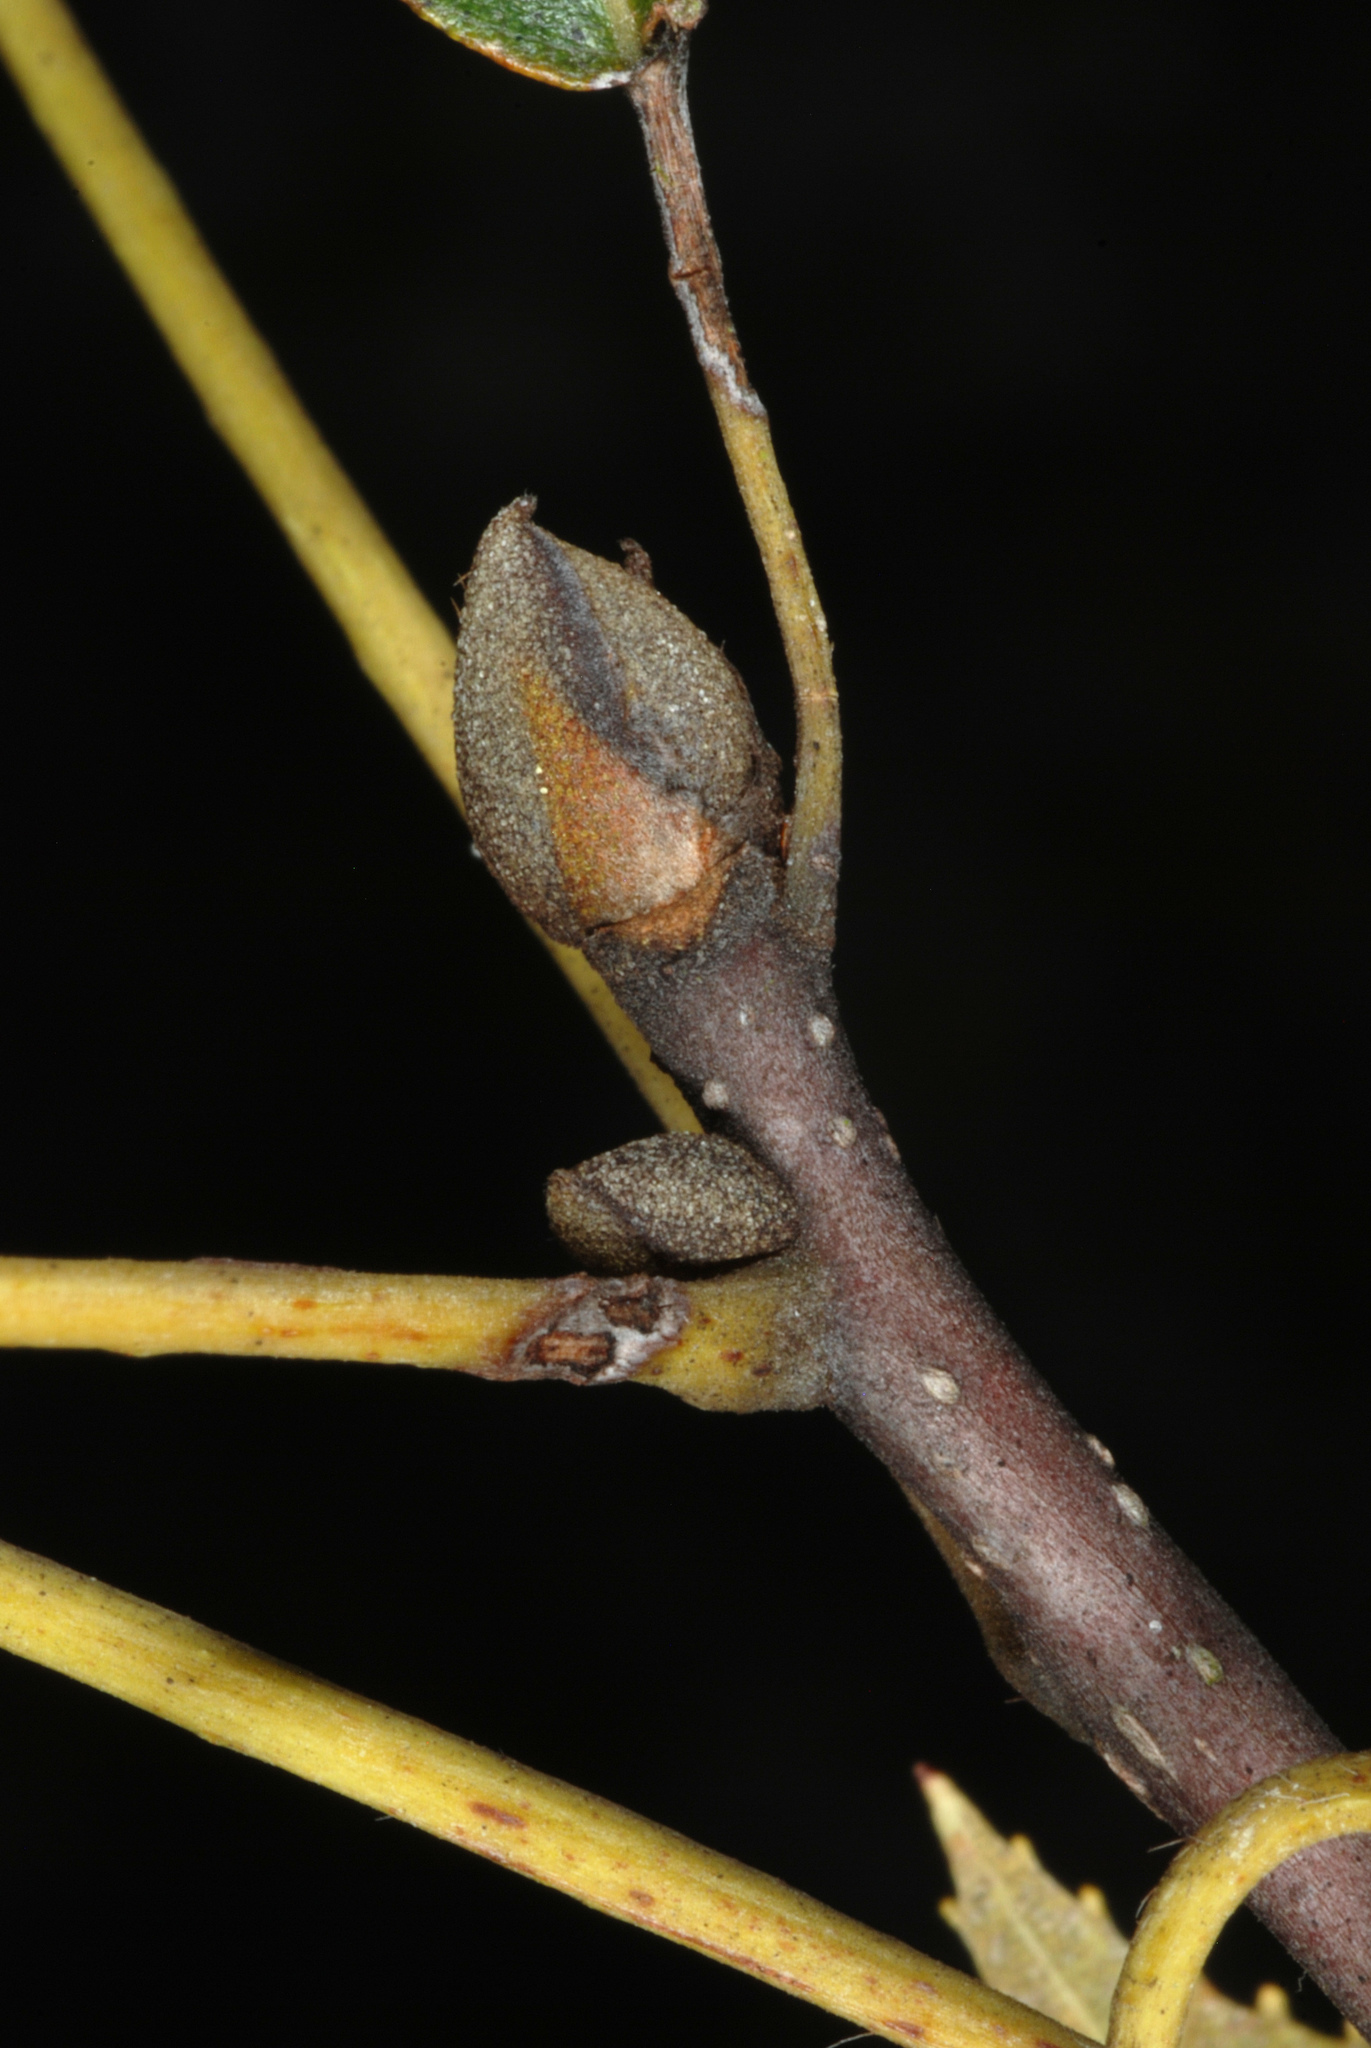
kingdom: Plantae
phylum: Tracheophyta
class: Magnoliopsida
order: Fagales
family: Juglandaceae
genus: Carya
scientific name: Carya floridana
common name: Scrub hickory
